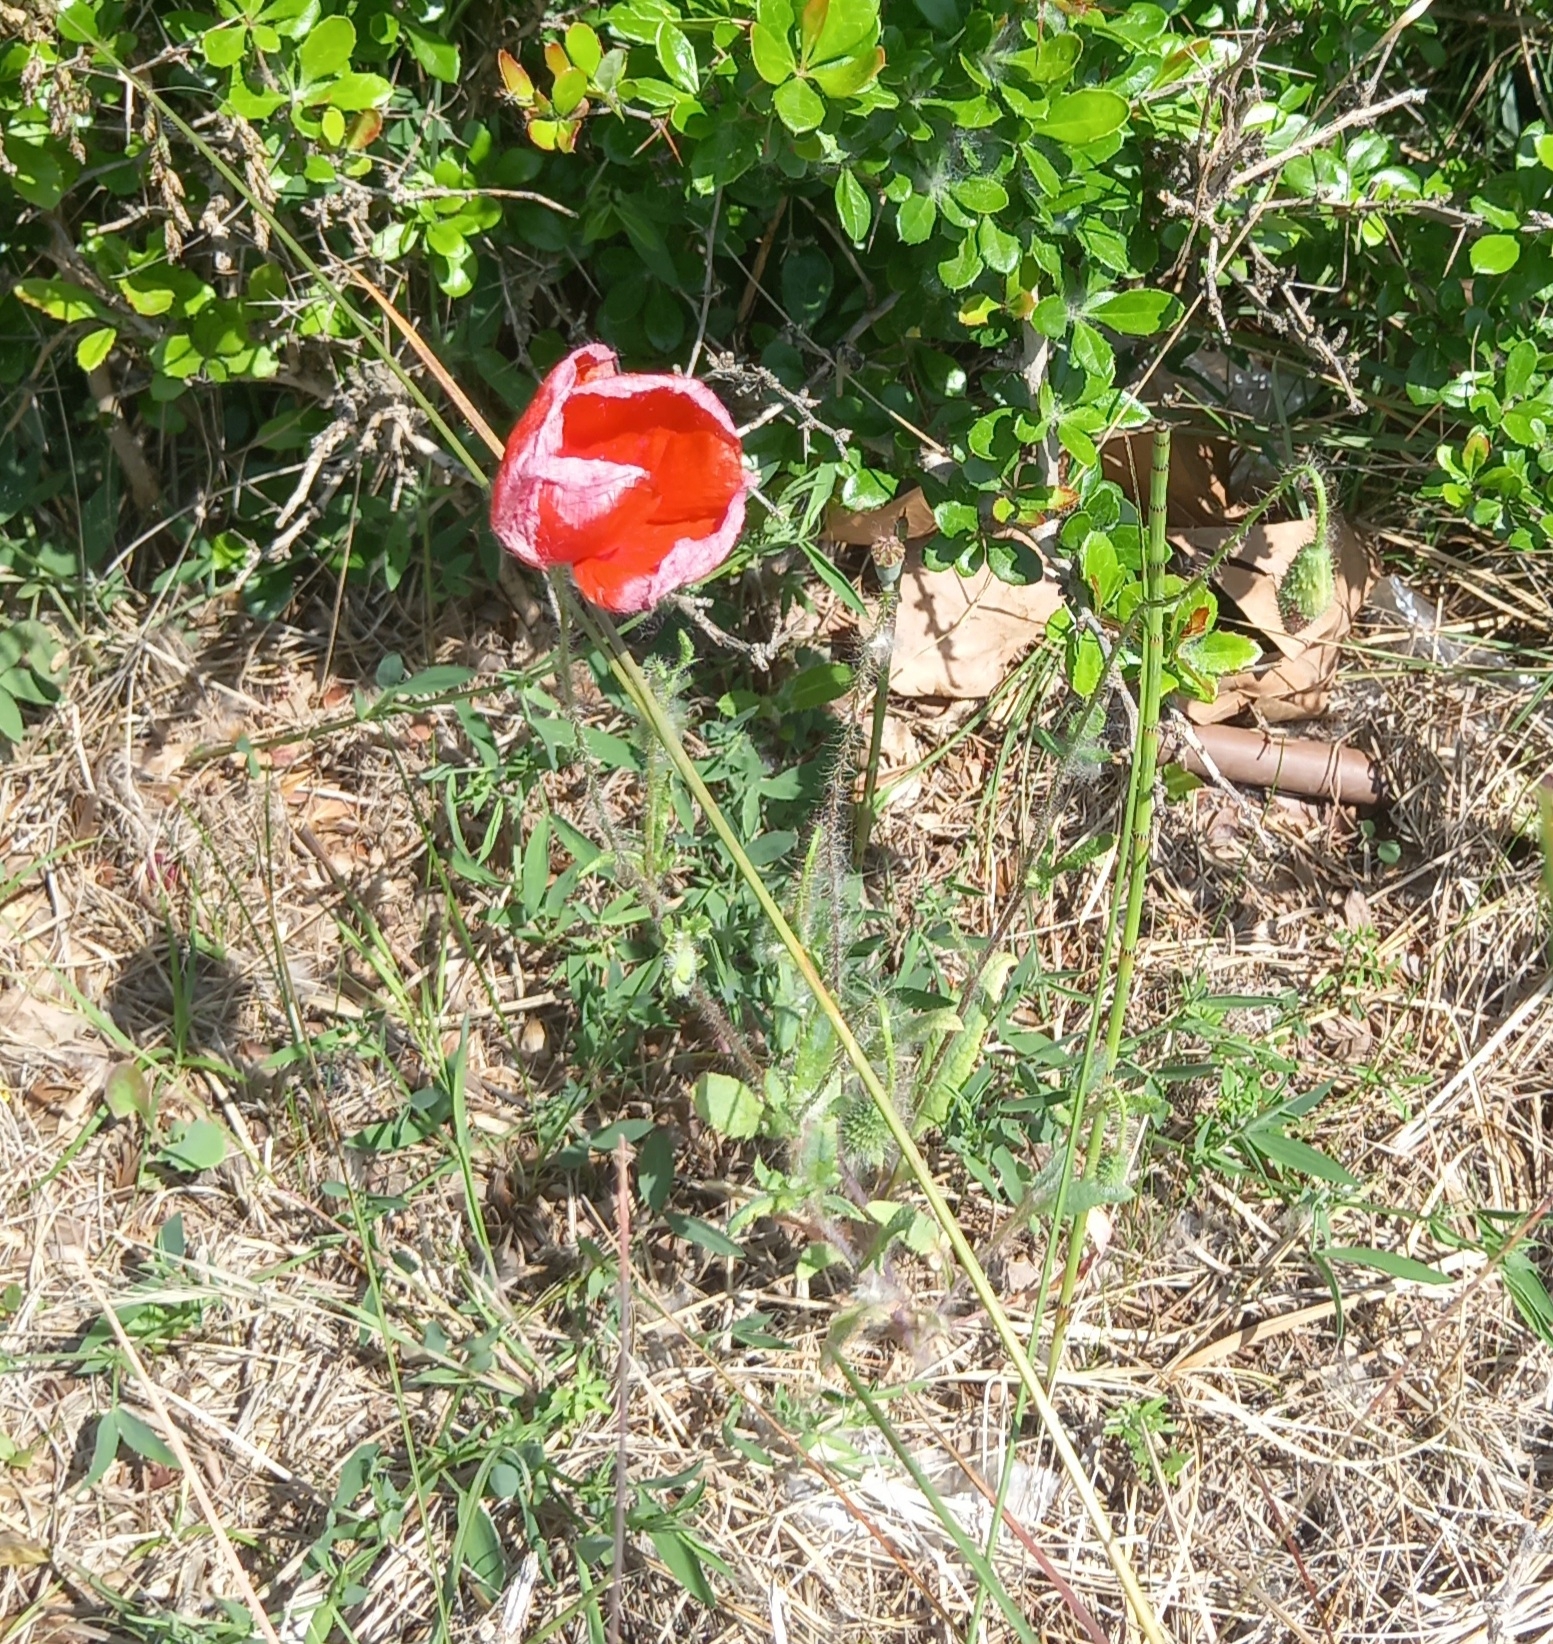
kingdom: Plantae
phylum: Tracheophyta
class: Magnoliopsida
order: Ranunculales
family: Papaveraceae
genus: Papaver
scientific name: Papaver rhoeas
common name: Corn poppy
